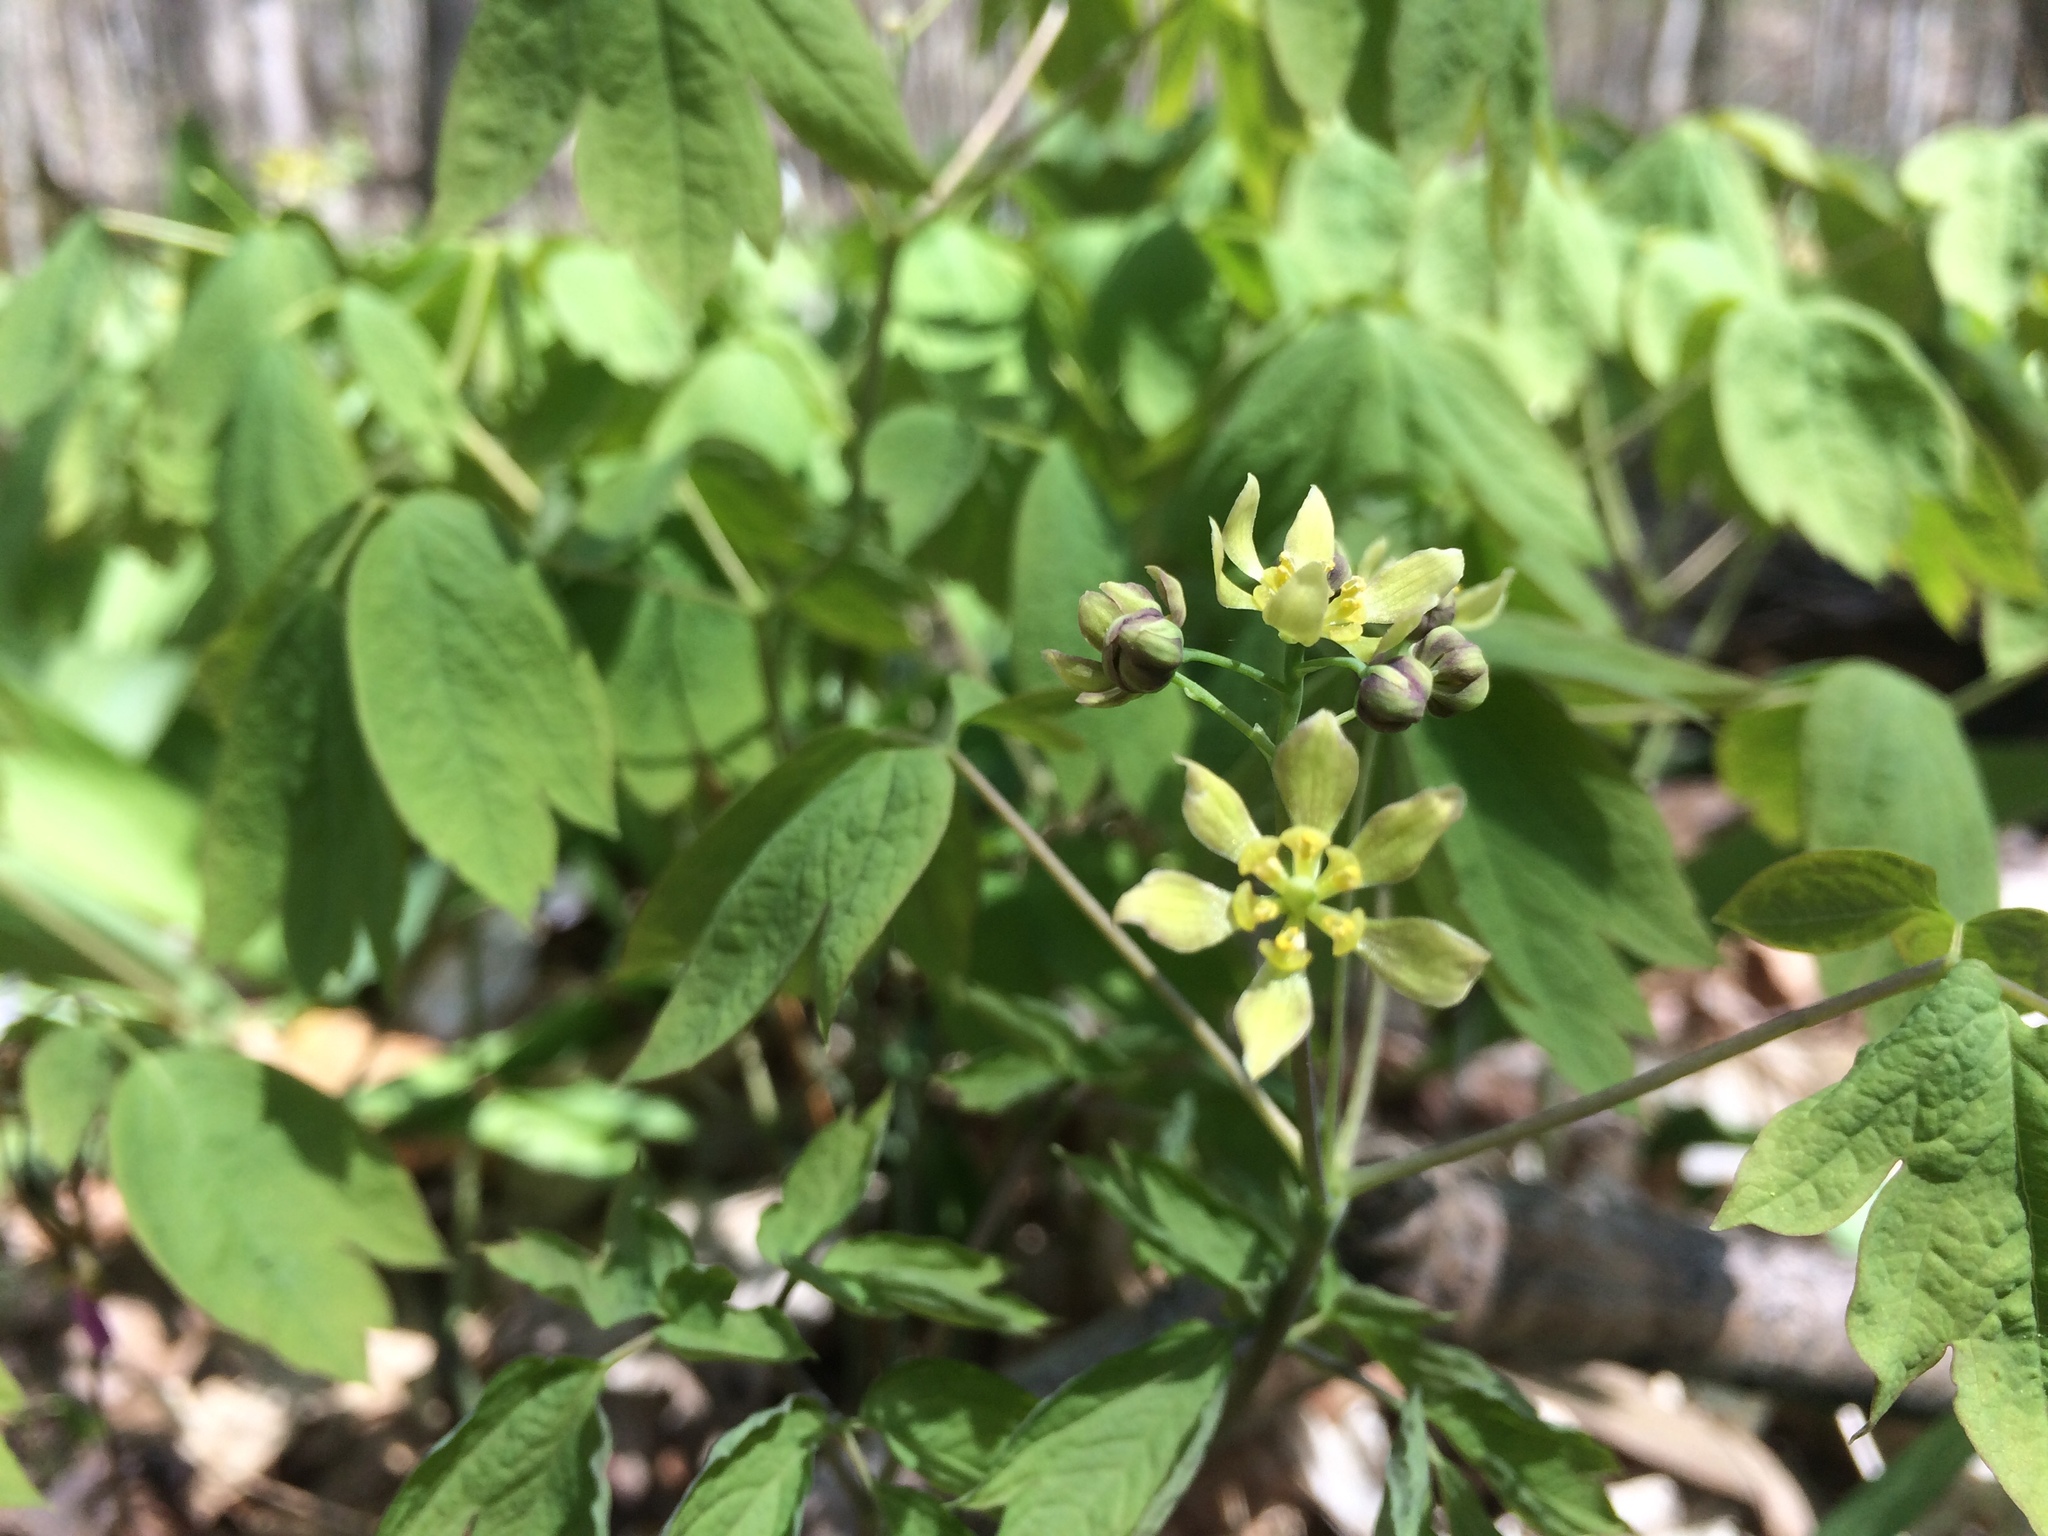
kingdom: Plantae
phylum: Tracheophyta
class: Magnoliopsida
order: Ranunculales
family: Berberidaceae
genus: Caulophyllum
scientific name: Caulophyllum thalictroides
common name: Blue cohosh
